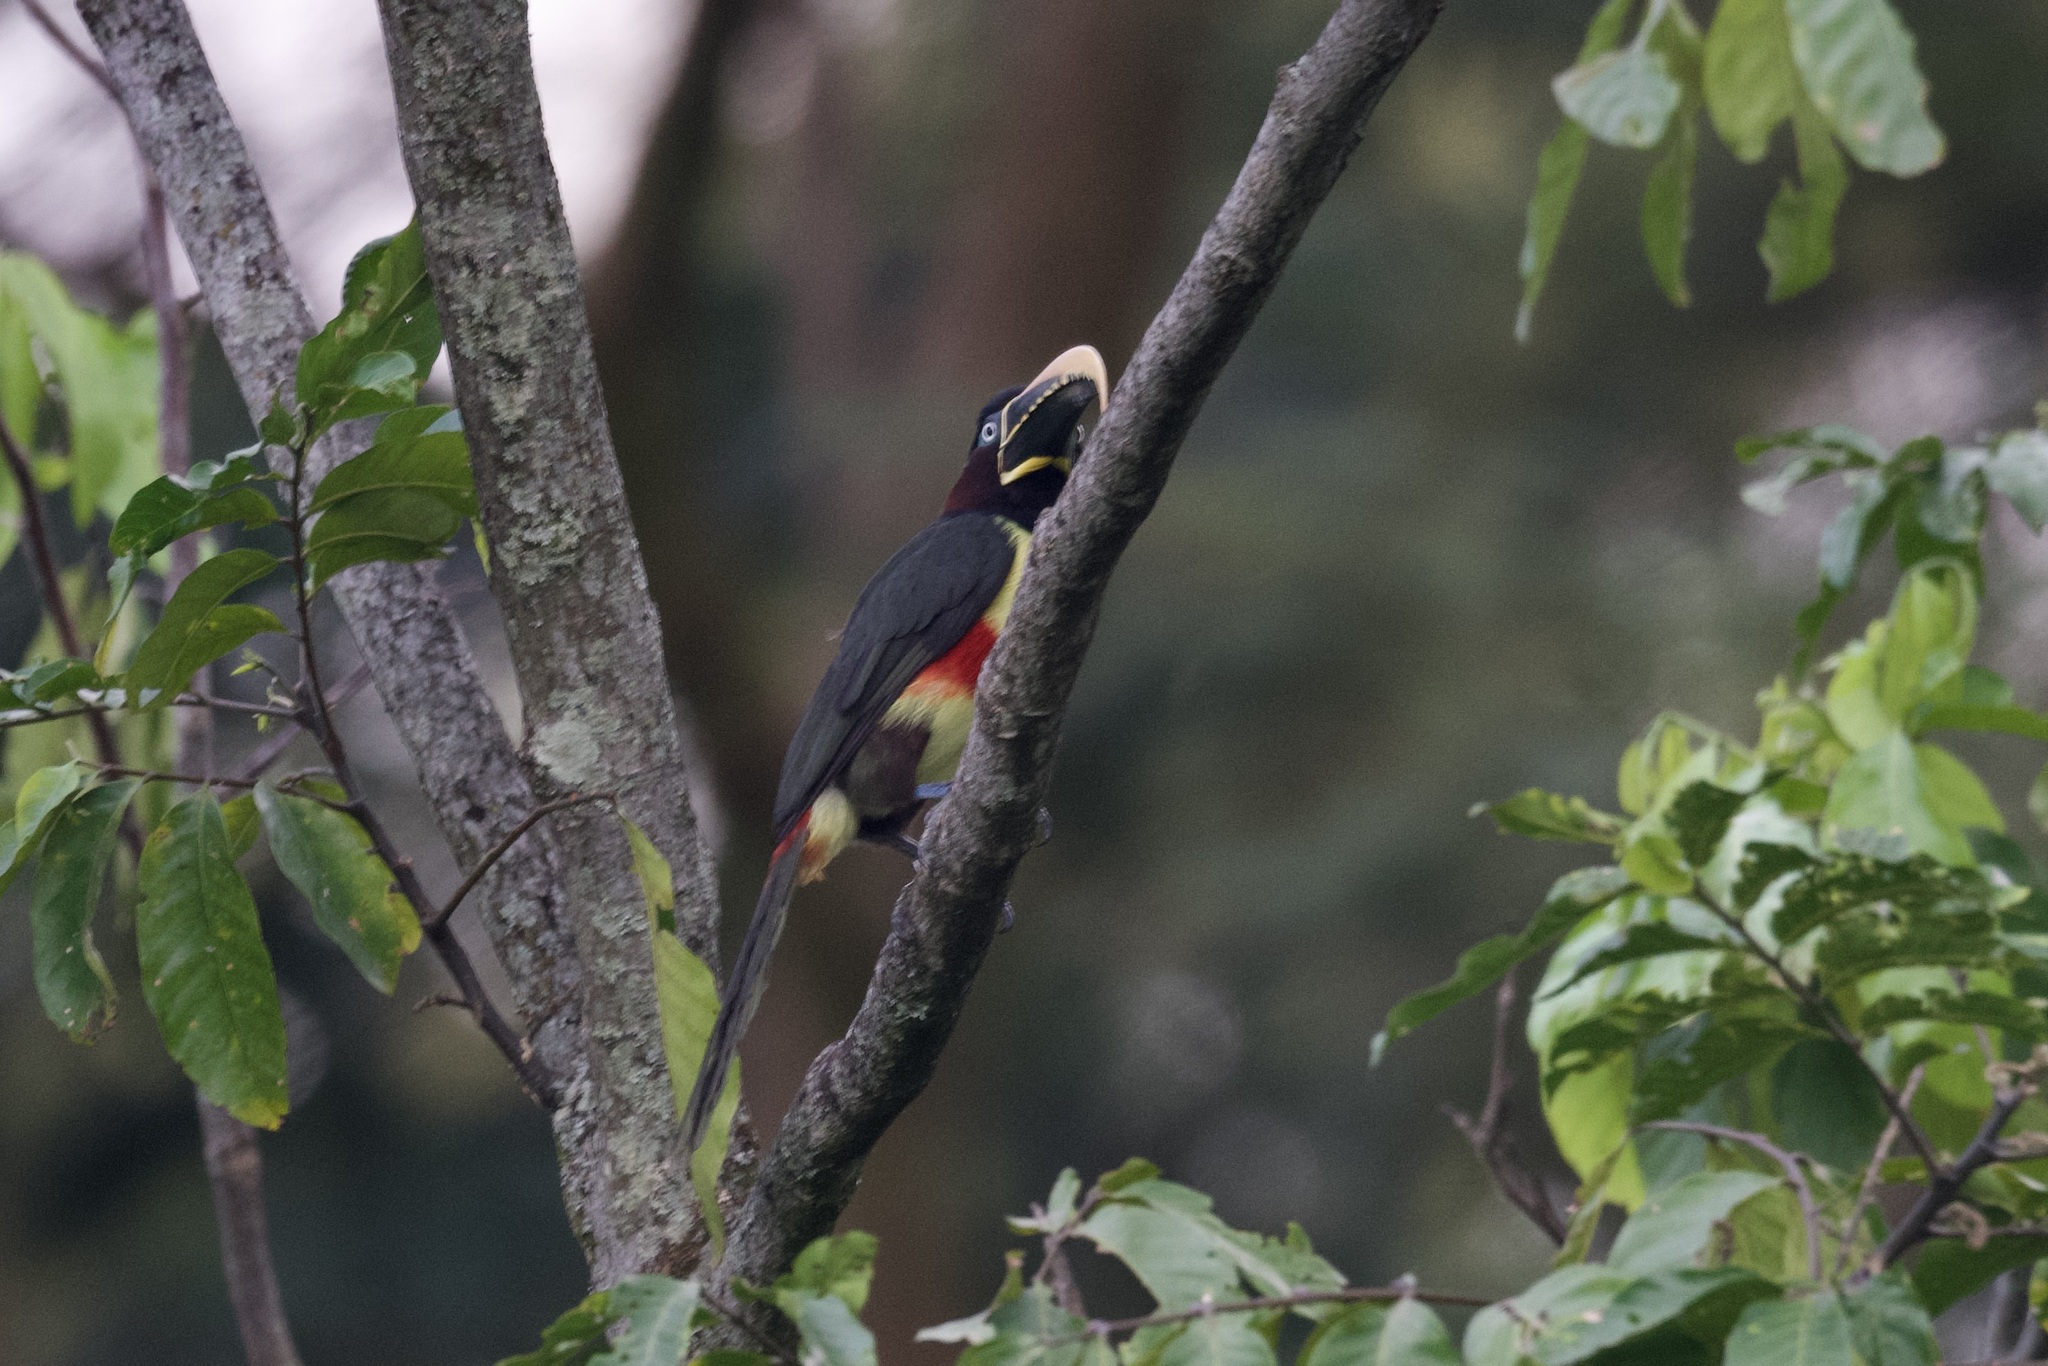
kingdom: Animalia
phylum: Chordata
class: Aves
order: Piciformes
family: Ramphastidae
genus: Pteroglossus
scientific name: Pteroglossus castanotis
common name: Chestnut-eared aracari
